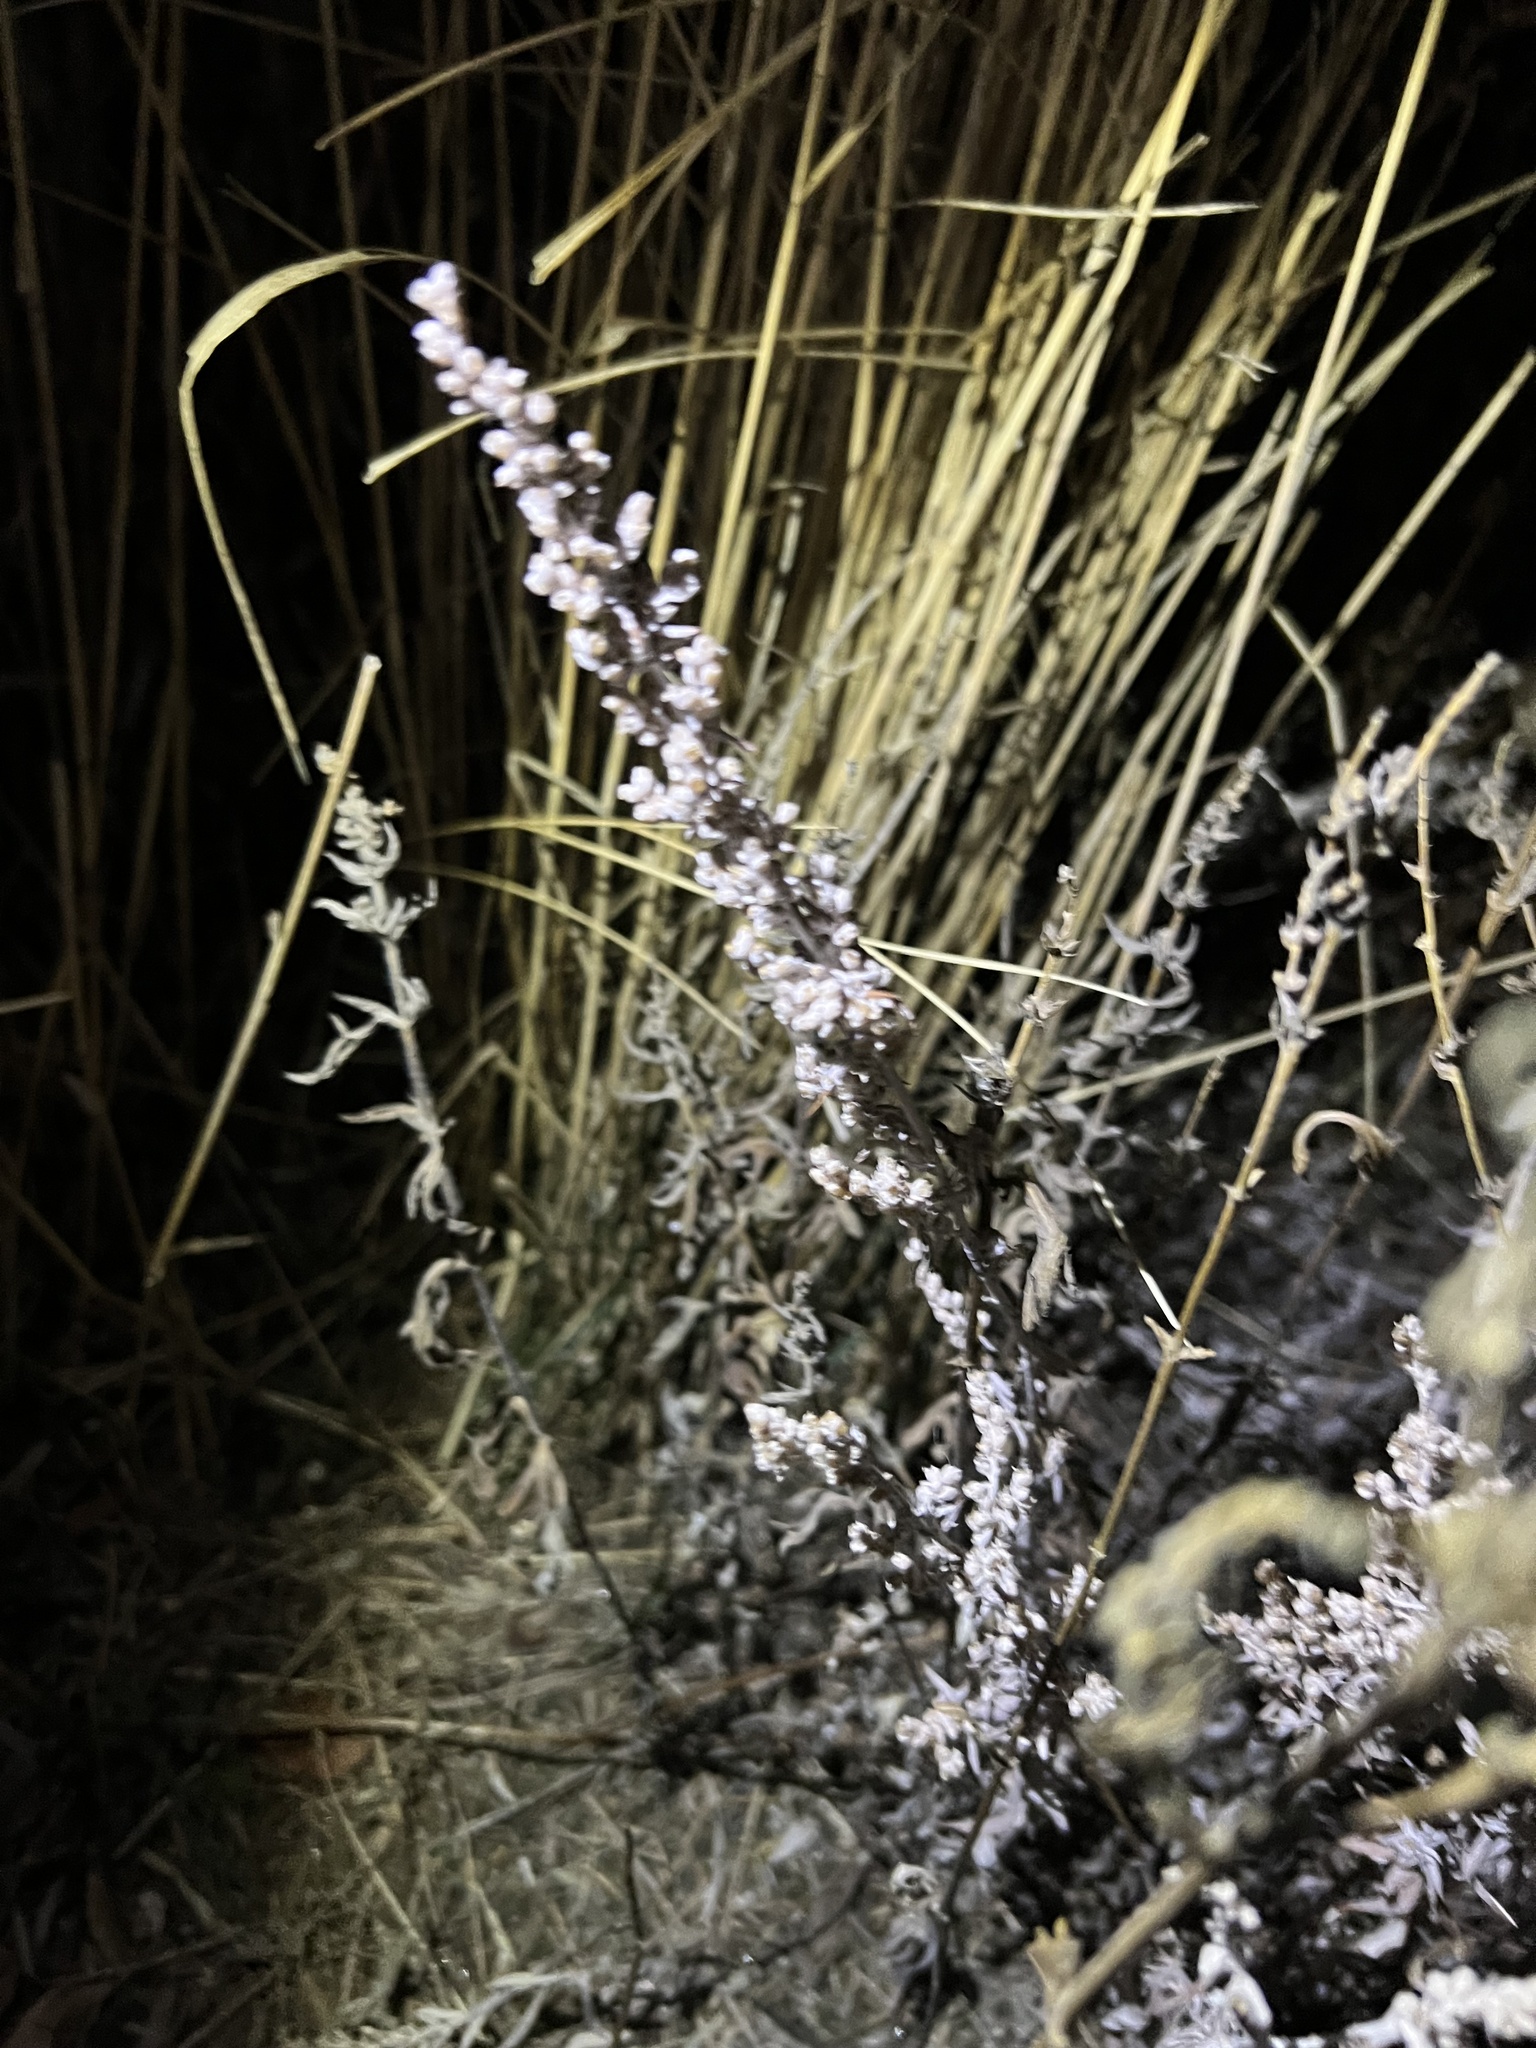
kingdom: Plantae
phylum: Tracheophyta
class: Magnoliopsida
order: Asterales
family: Asteraceae
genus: Artemisia
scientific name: Artemisia ludoviciana
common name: Western mugwort
